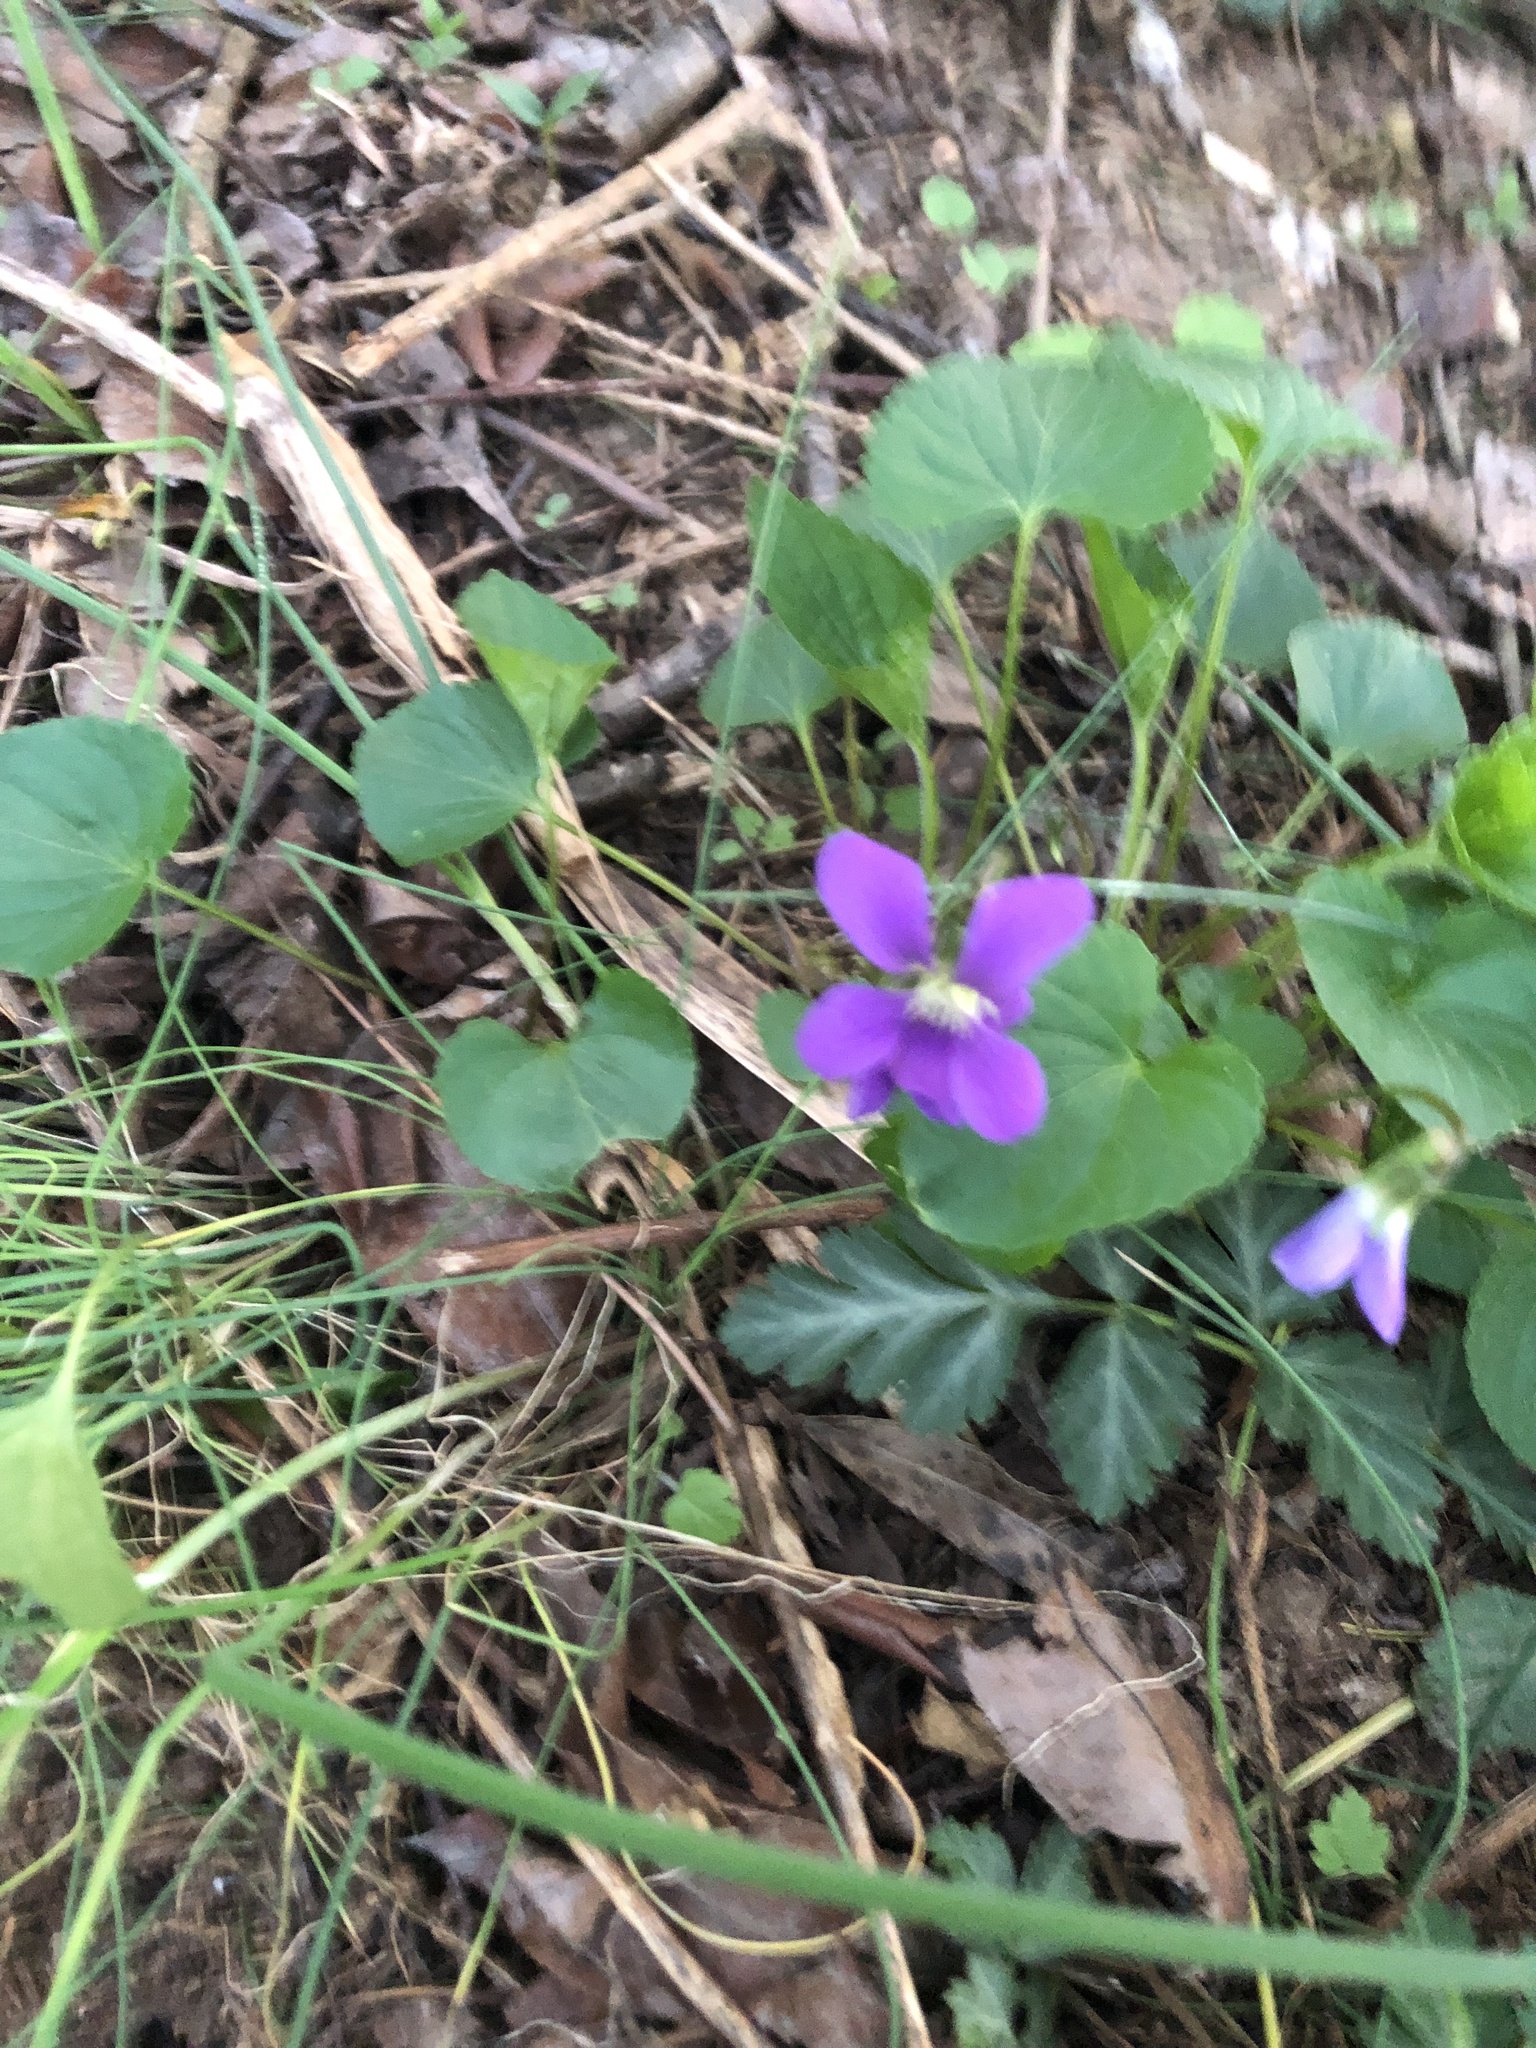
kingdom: Plantae
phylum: Tracheophyta
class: Magnoliopsida
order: Malpighiales
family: Violaceae
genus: Viola
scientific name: Viola sororia
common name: Dooryard violet
